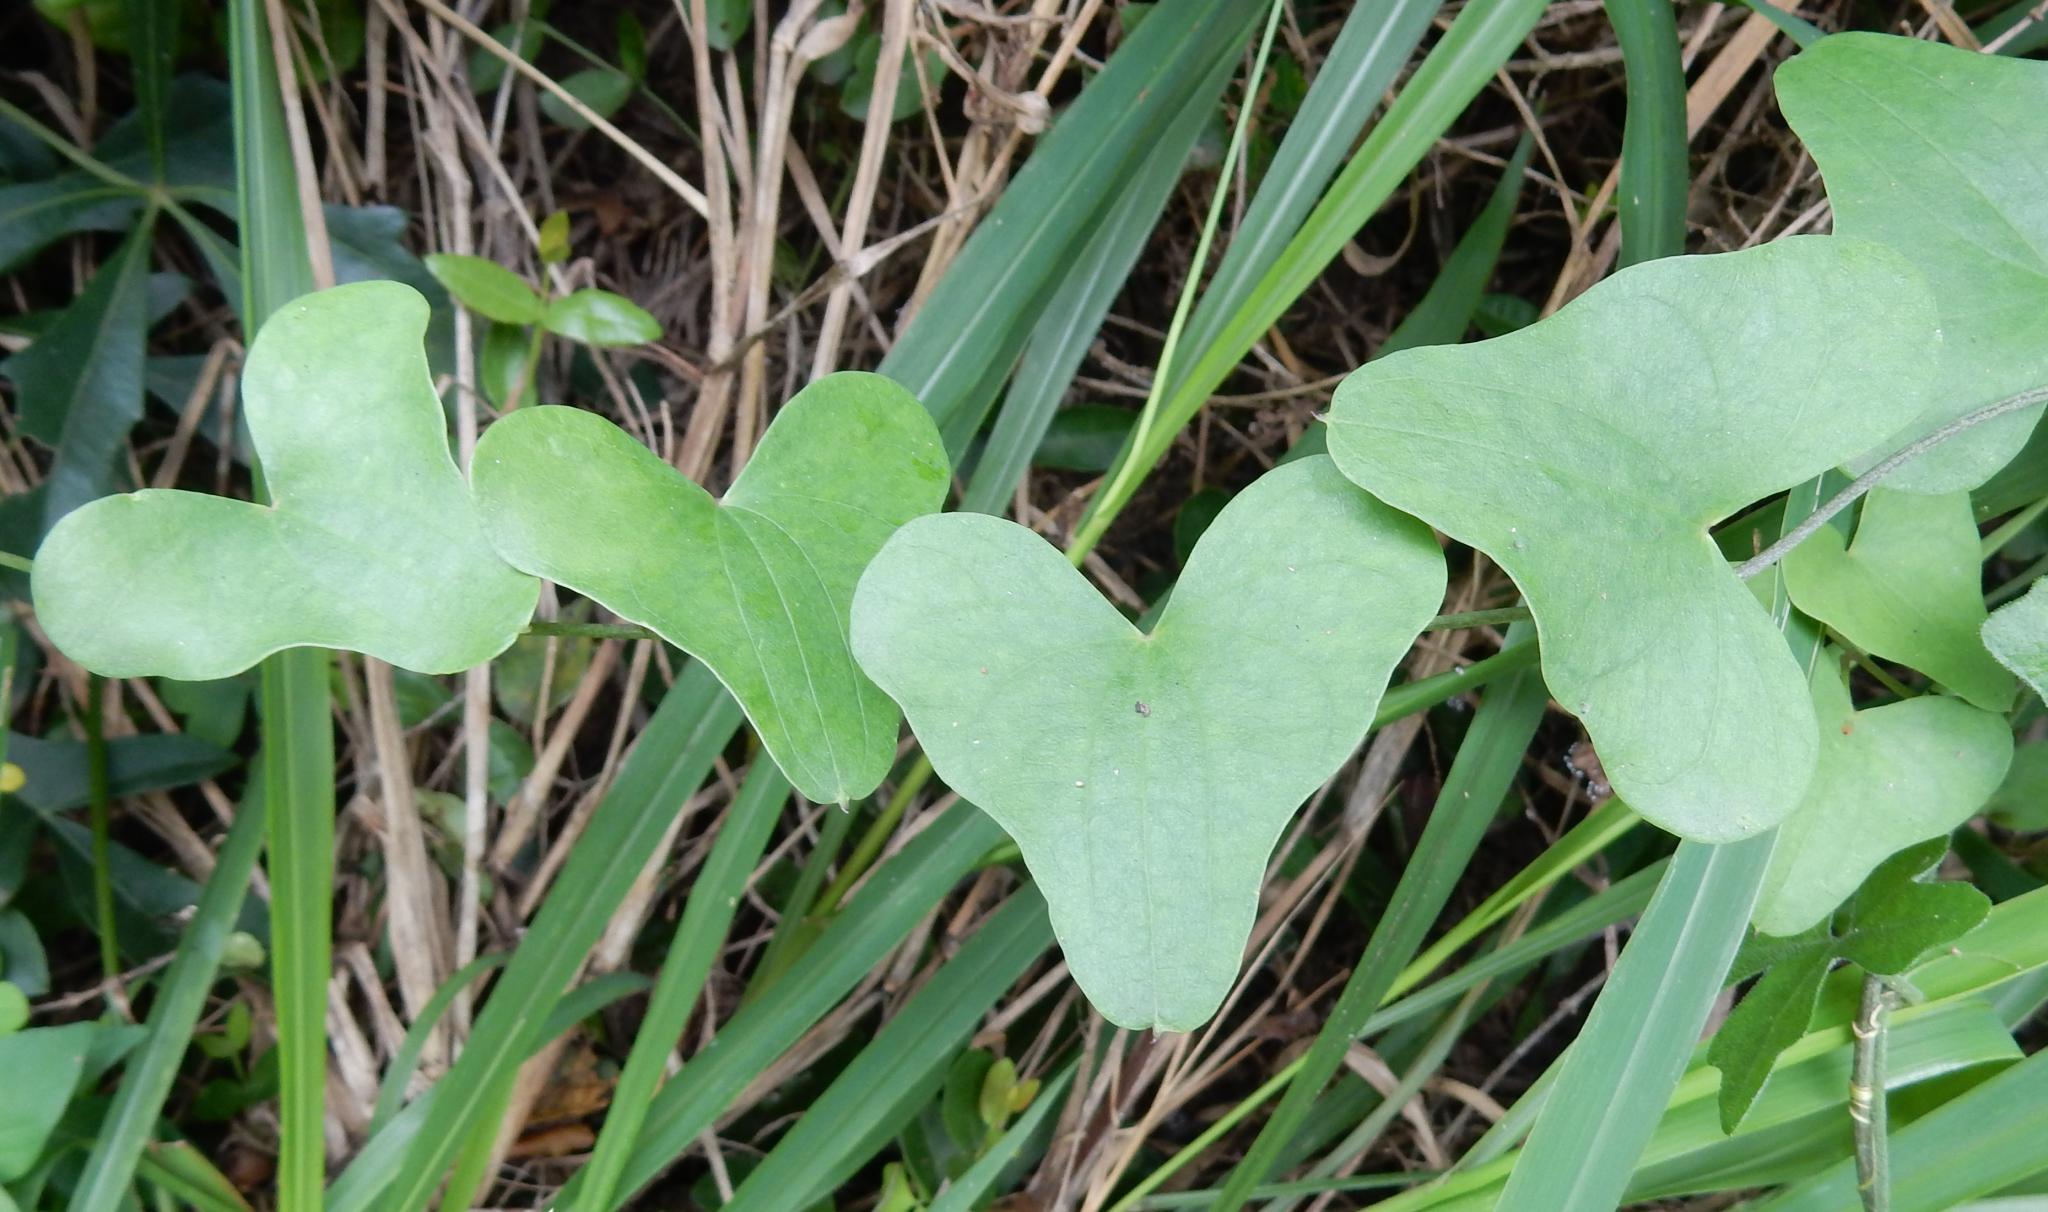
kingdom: Plantae
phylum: Tracheophyta
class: Liliopsida
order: Dioscoreales
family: Dioscoreaceae
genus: Dioscorea
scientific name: Dioscorea sylvatica
